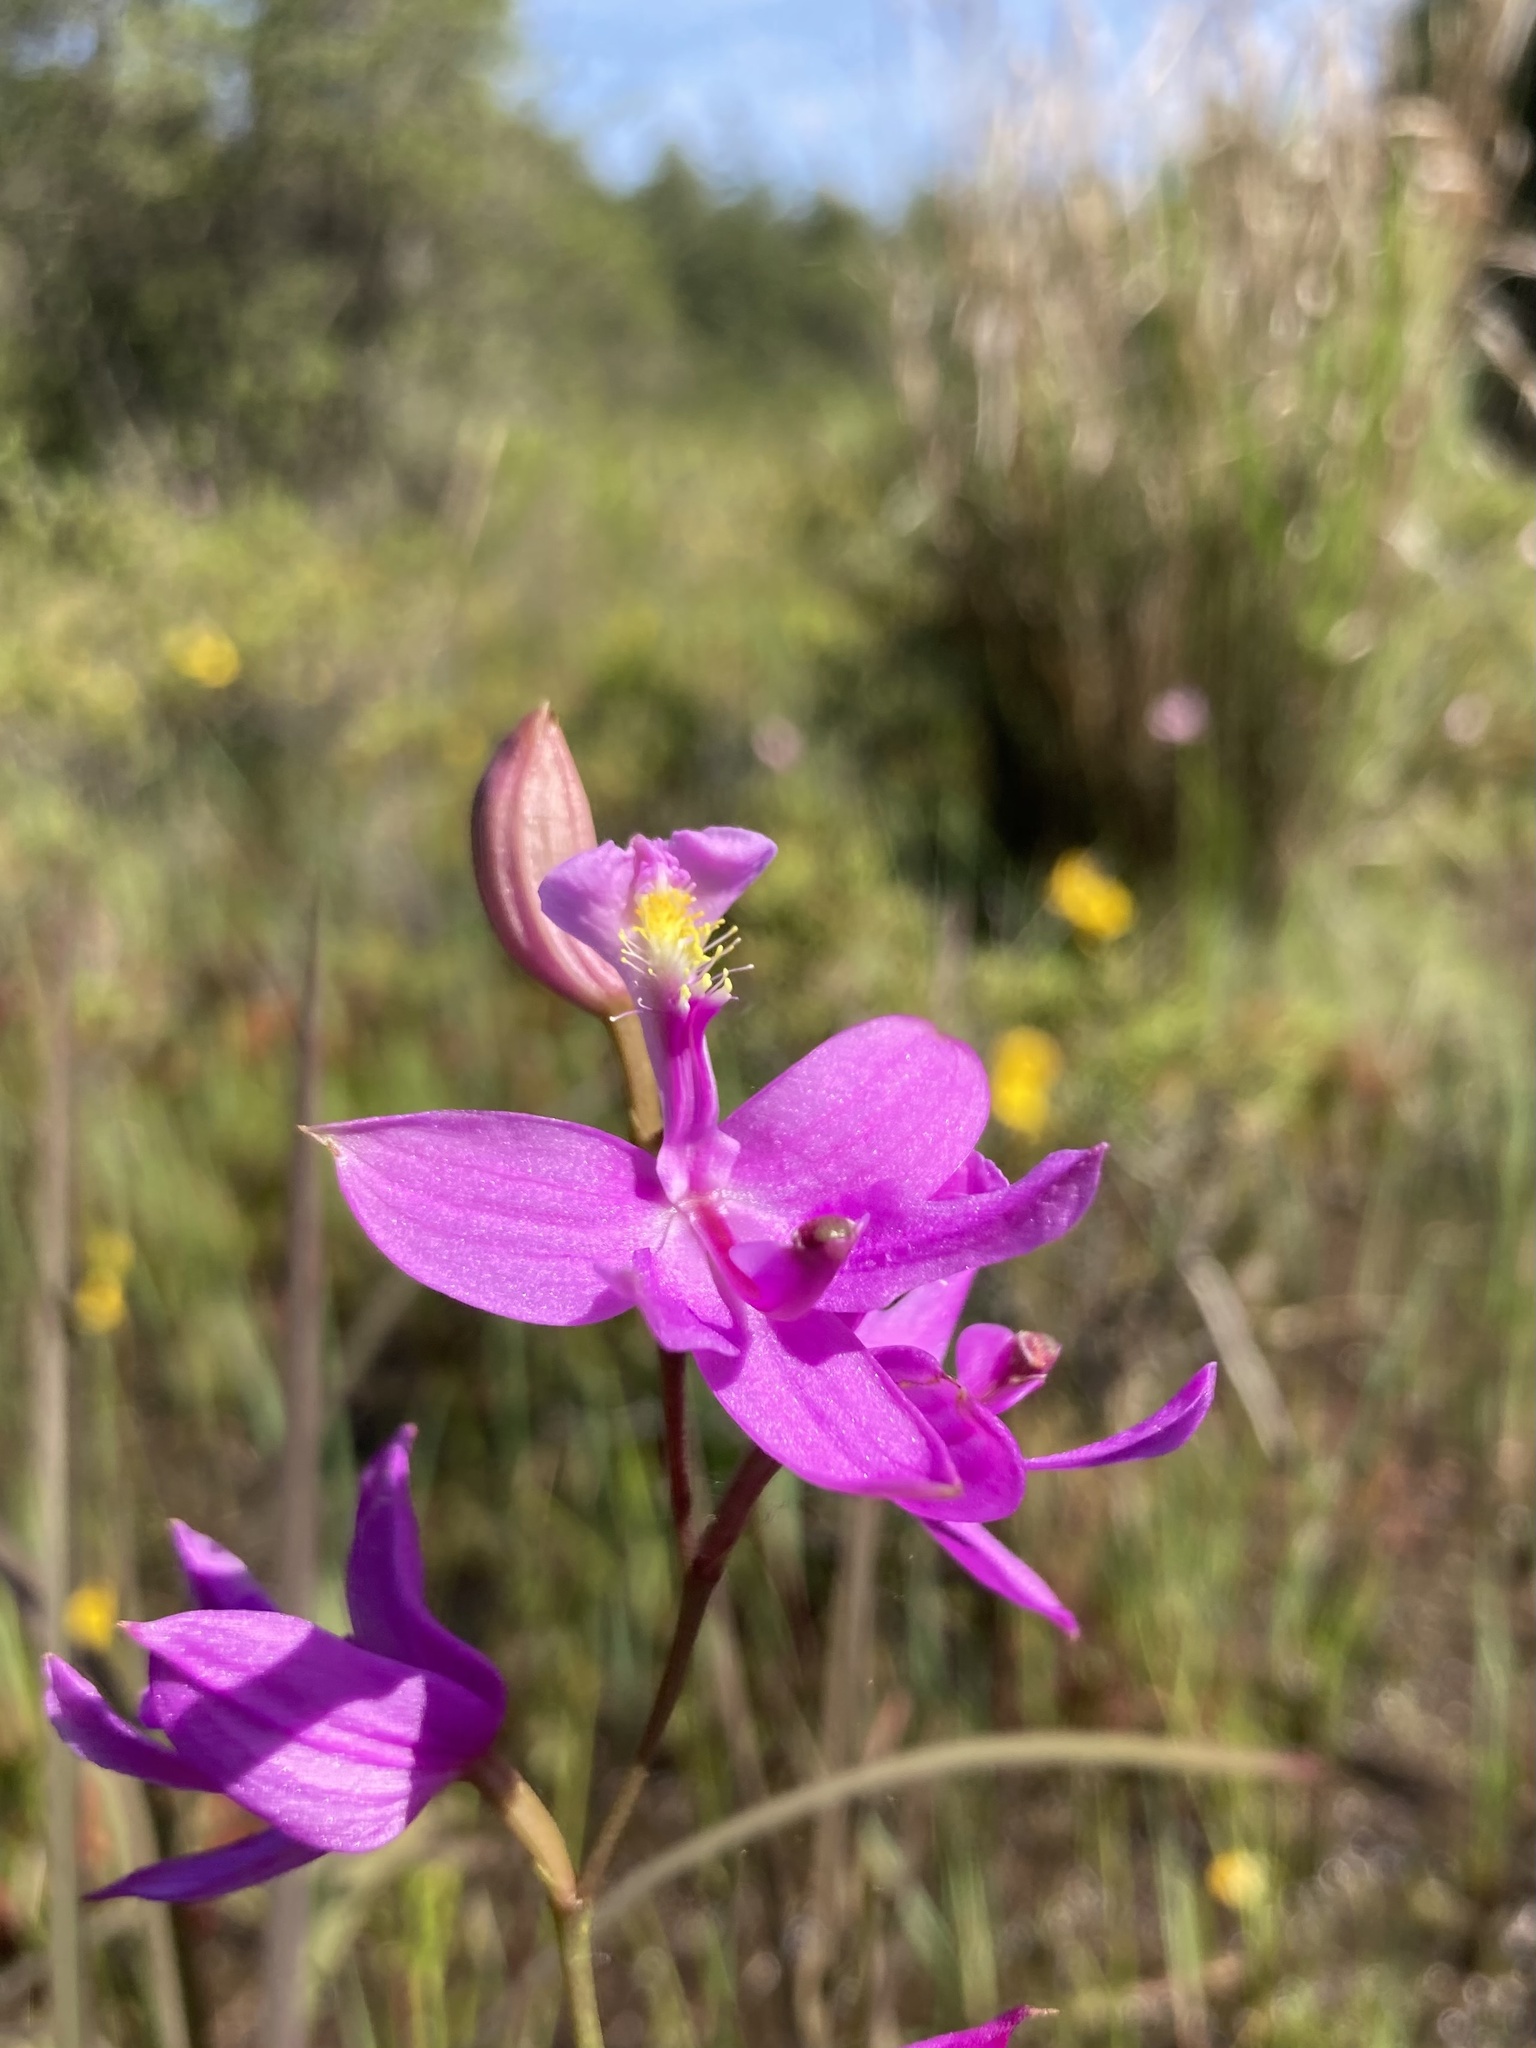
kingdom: Plantae
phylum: Tracheophyta
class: Liliopsida
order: Asparagales
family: Orchidaceae
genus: Calopogon
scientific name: Calopogon tuberosus
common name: Grass-pink
